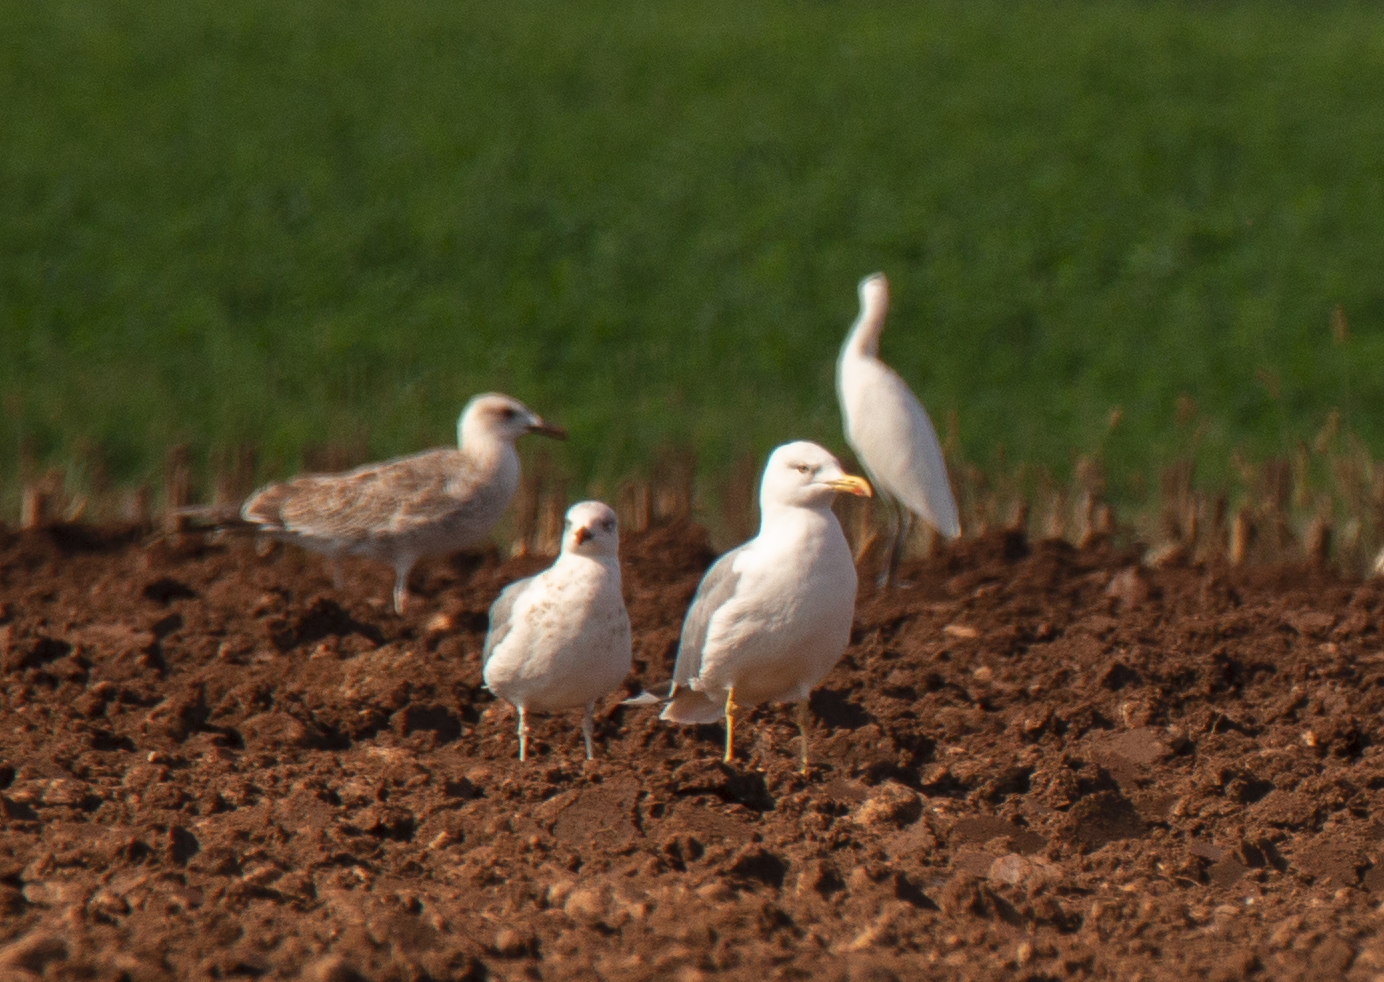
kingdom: Animalia
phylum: Chordata
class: Aves
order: Charadriiformes
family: Laridae
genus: Larus
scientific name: Larus michahellis
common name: Yellow-legged gull
